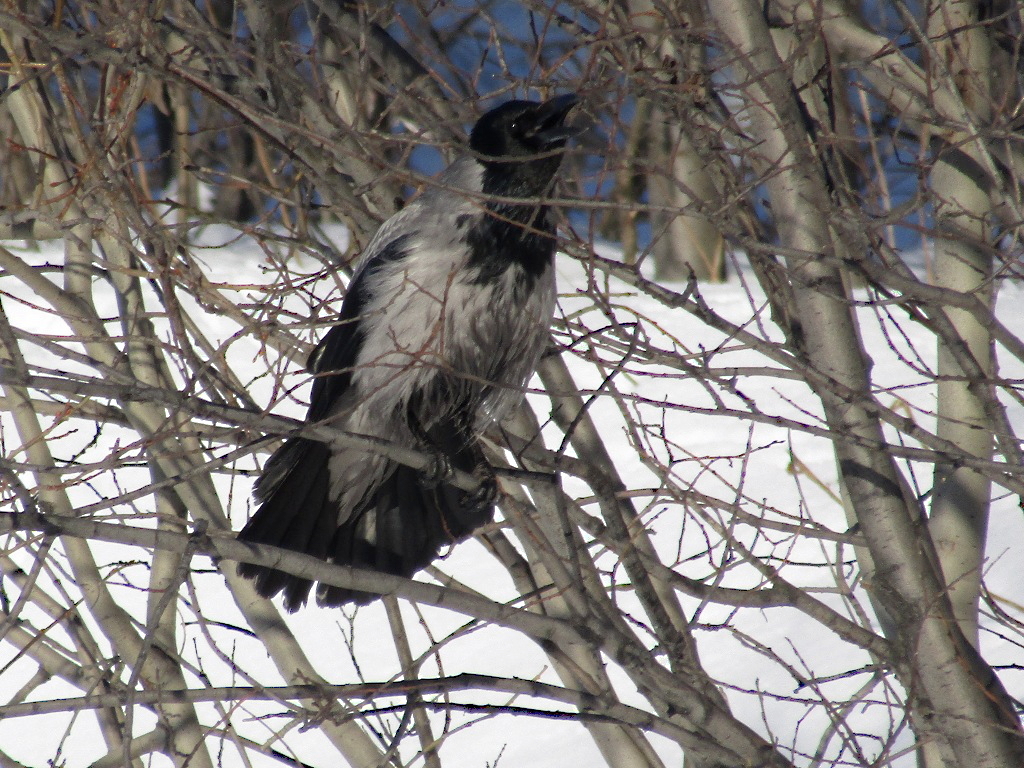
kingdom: Animalia
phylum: Chordata
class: Aves
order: Passeriformes
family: Corvidae
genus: Corvus
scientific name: Corvus cornix
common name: Hooded crow
